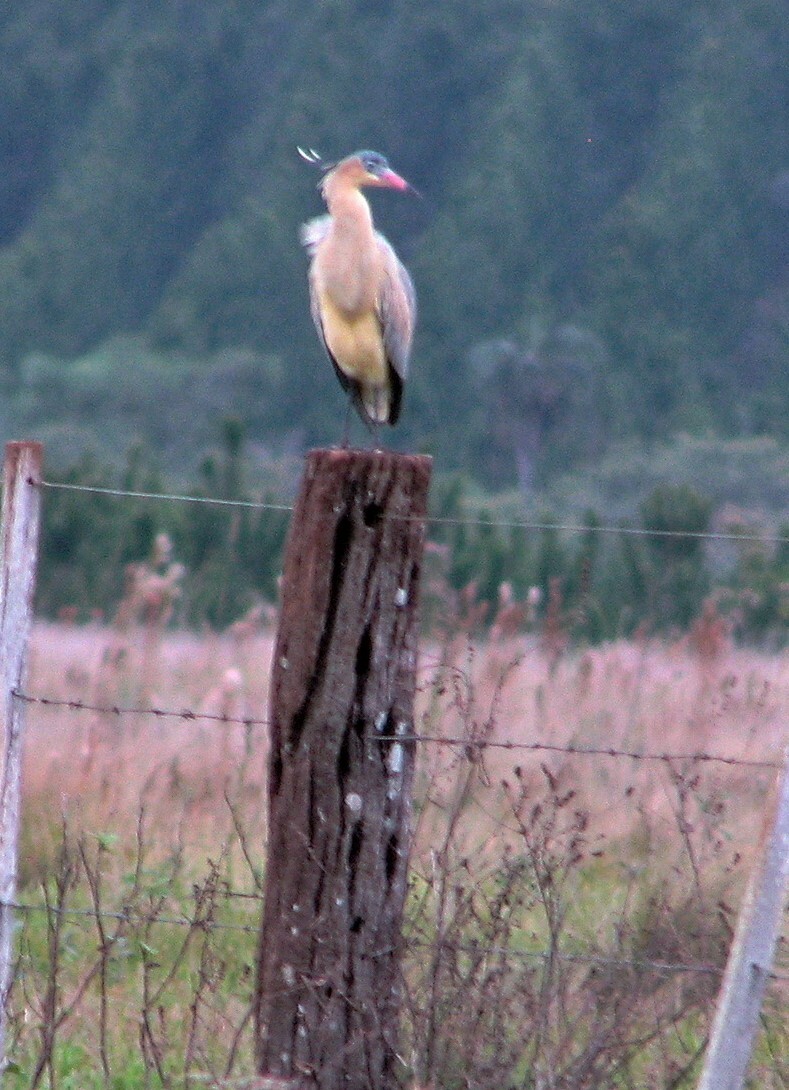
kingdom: Animalia
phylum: Chordata
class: Aves
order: Pelecaniformes
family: Ardeidae
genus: Syrigma
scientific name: Syrigma sibilatrix
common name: Whistling heron
